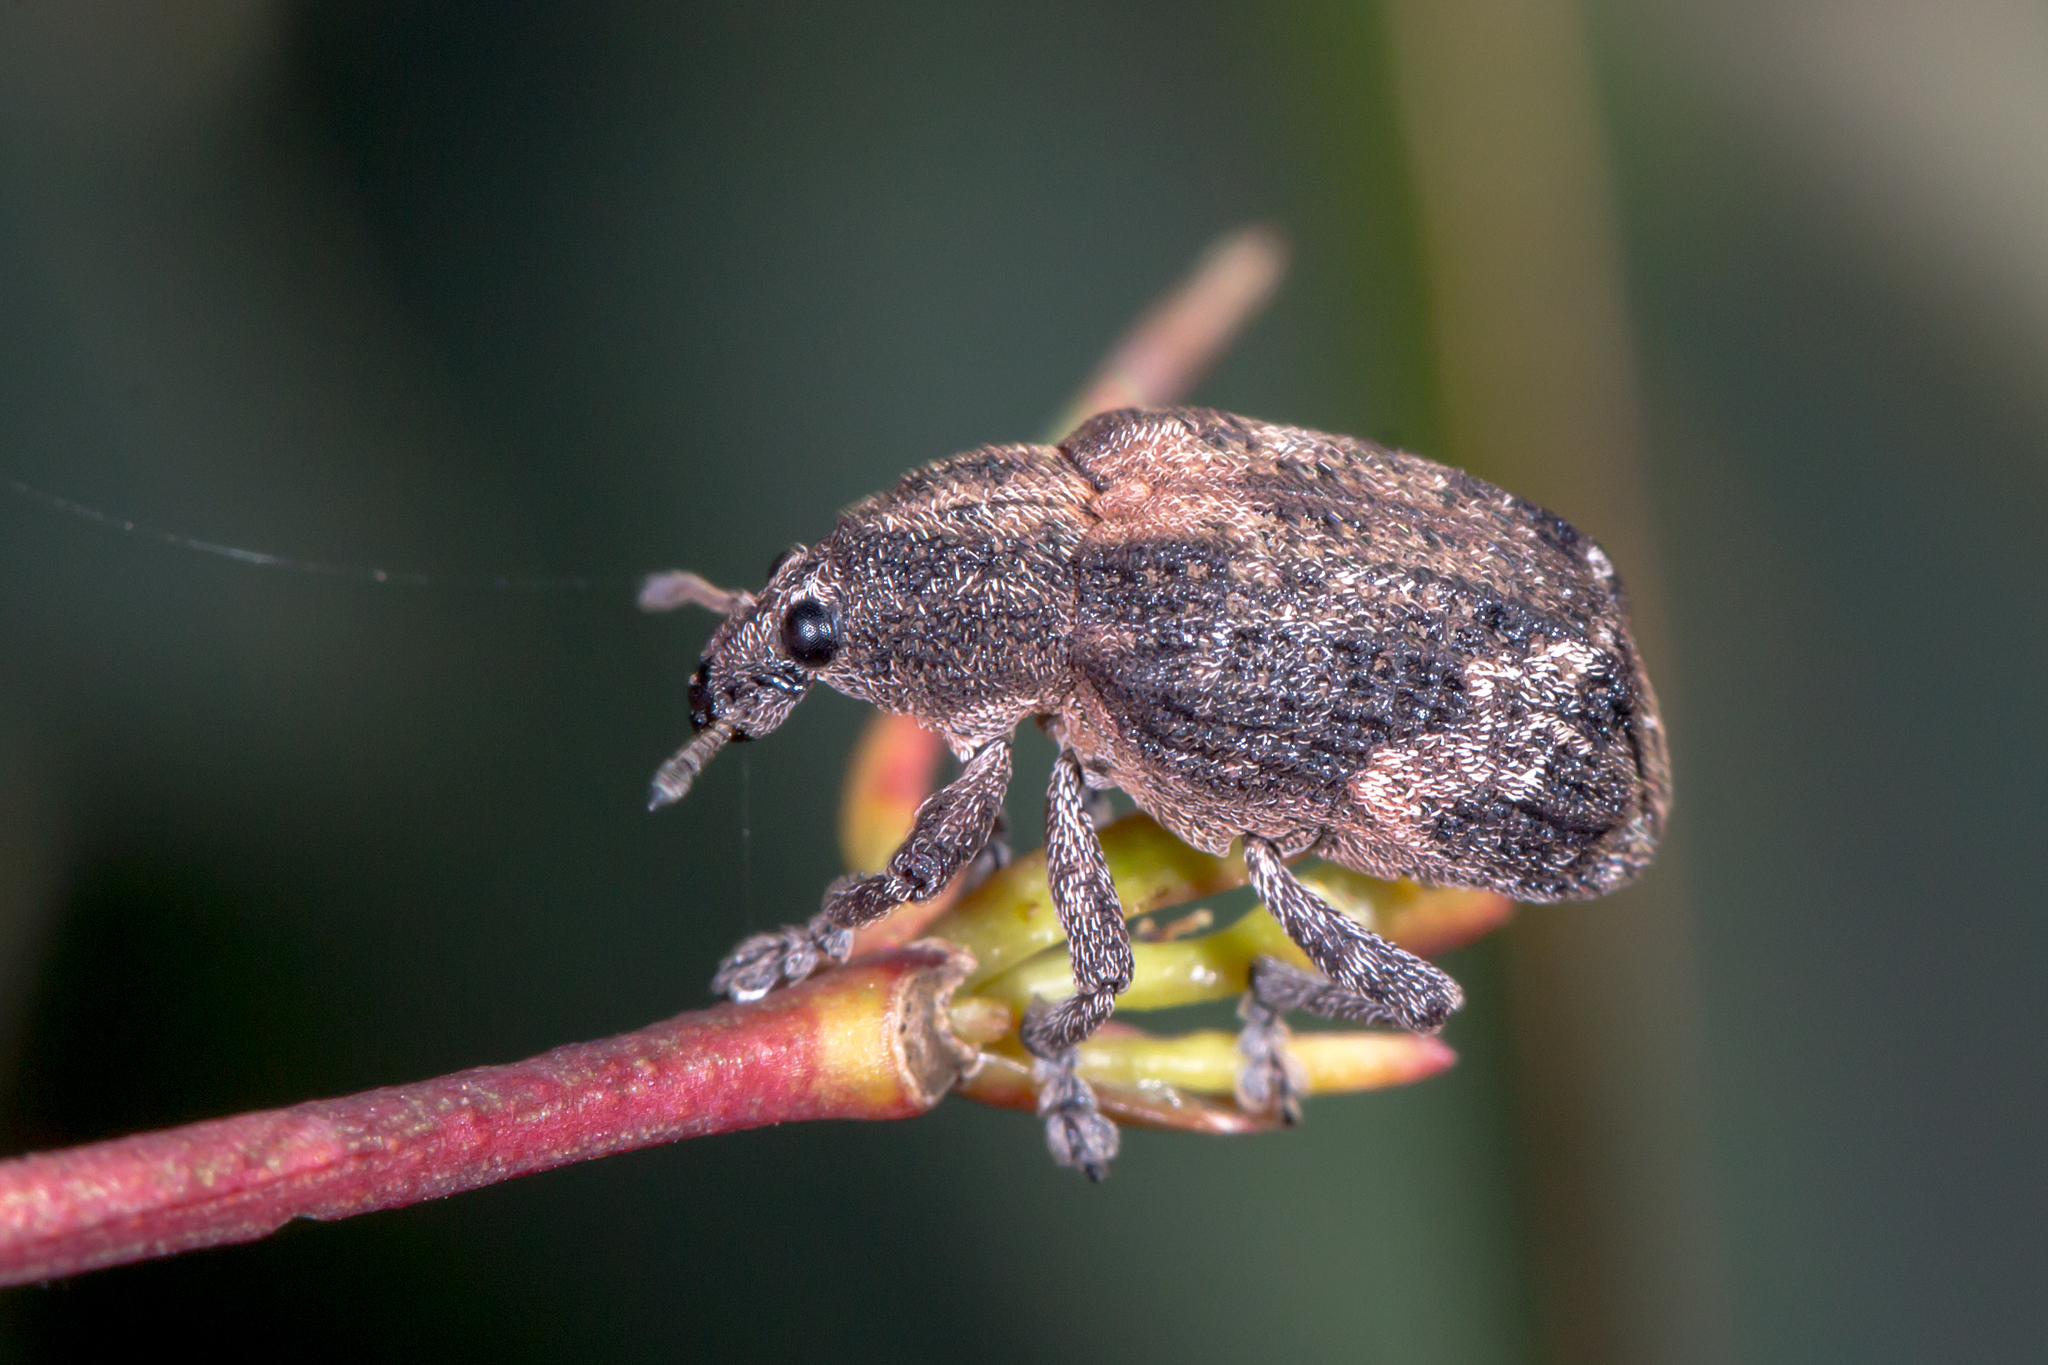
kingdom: Animalia
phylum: Arthropoda
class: Insecta
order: Coleoptera
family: Curculionidae
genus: Oxyops
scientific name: Oxyops fasciatus
